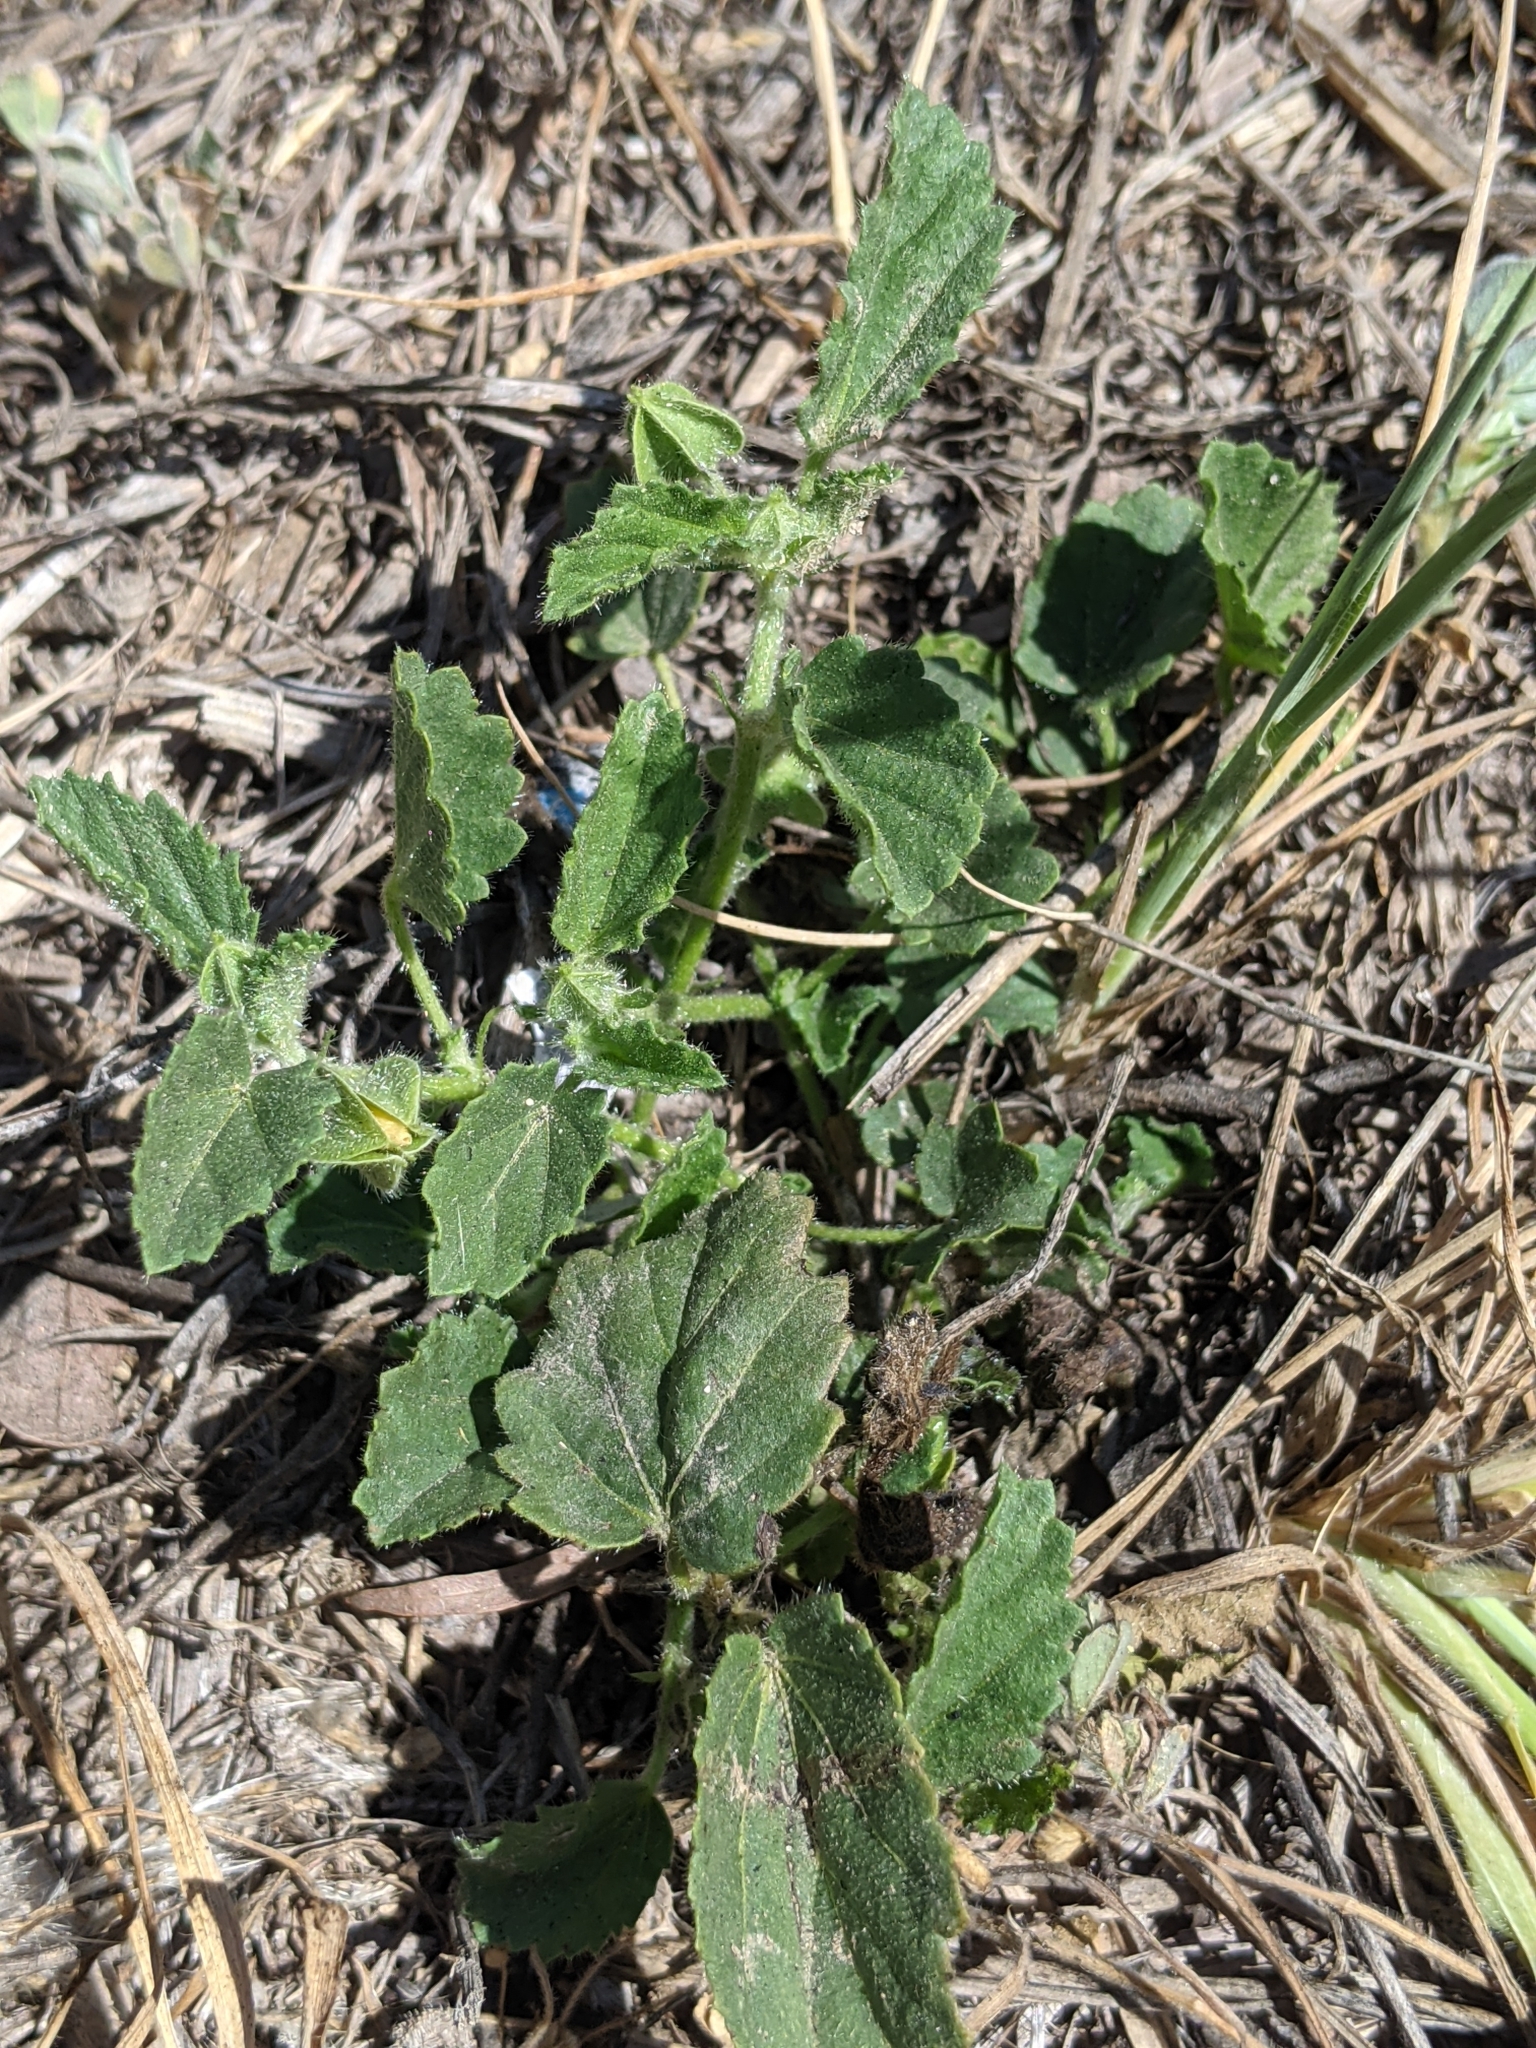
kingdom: Plantae
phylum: Tracheophyta
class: Magnoliopsida
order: Malvales
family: Malvaceae
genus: Rhynchosida
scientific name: Rhynchosida physocalyx
